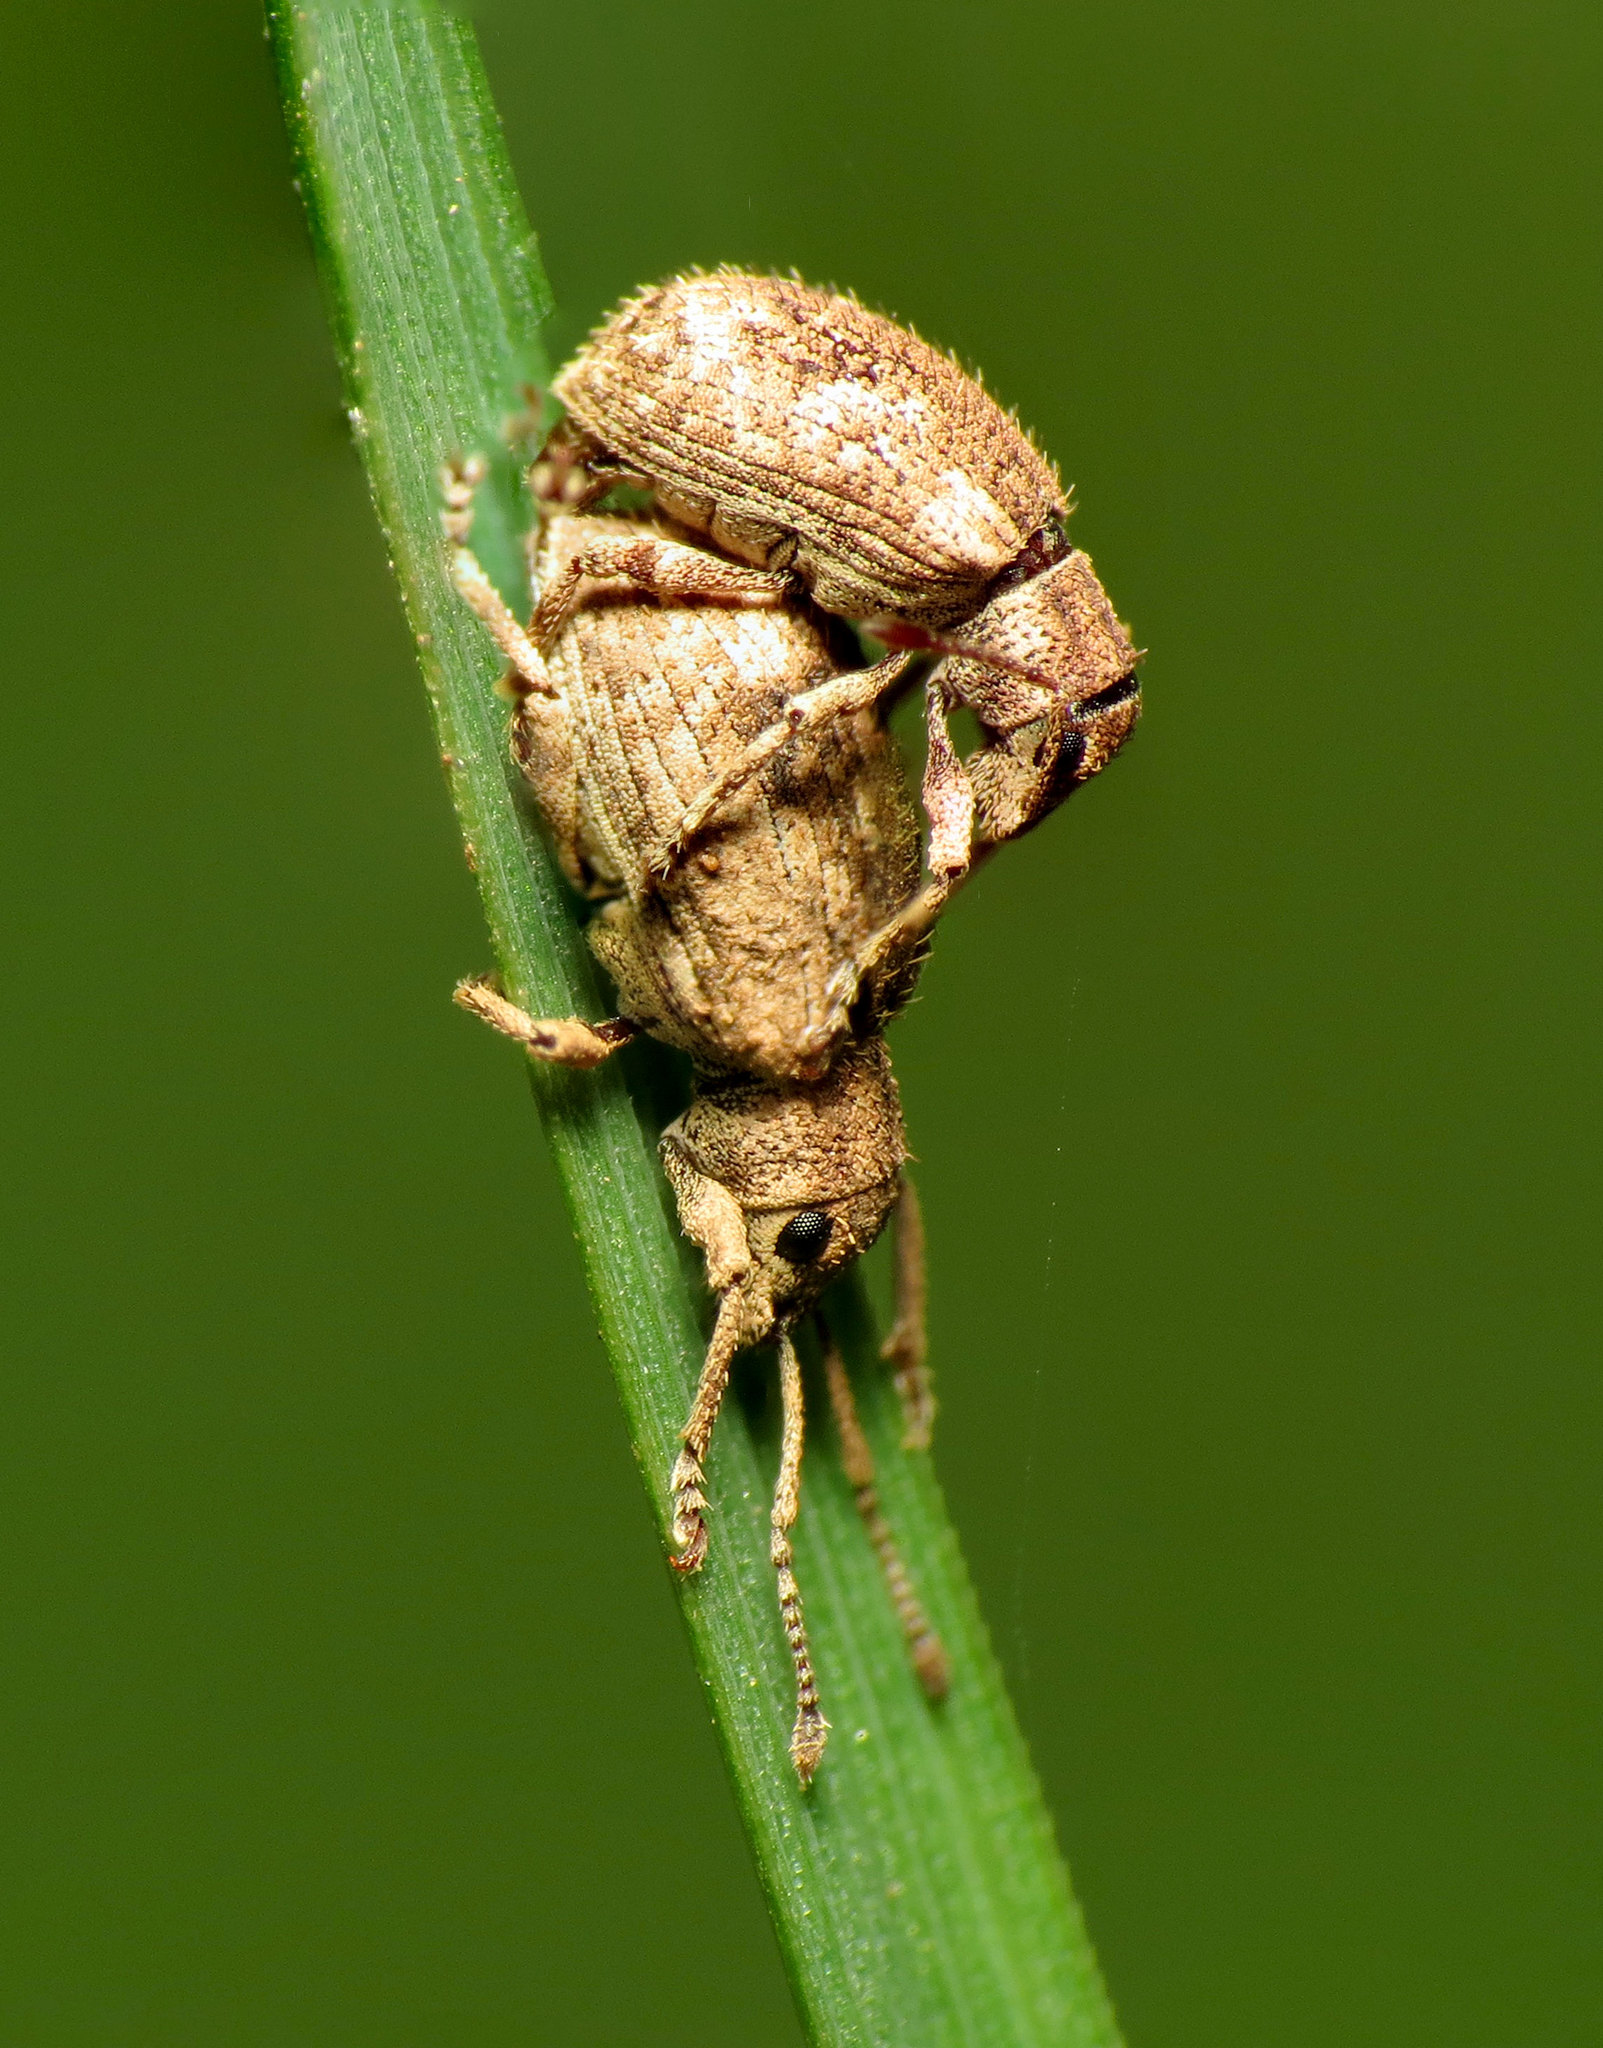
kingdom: Animalia
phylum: Arthropoda
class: Insecta
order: Coleoptera
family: Curculionidae
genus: Pseudoedophrys
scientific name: Pseudoedophrys hilleri
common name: Weevil
